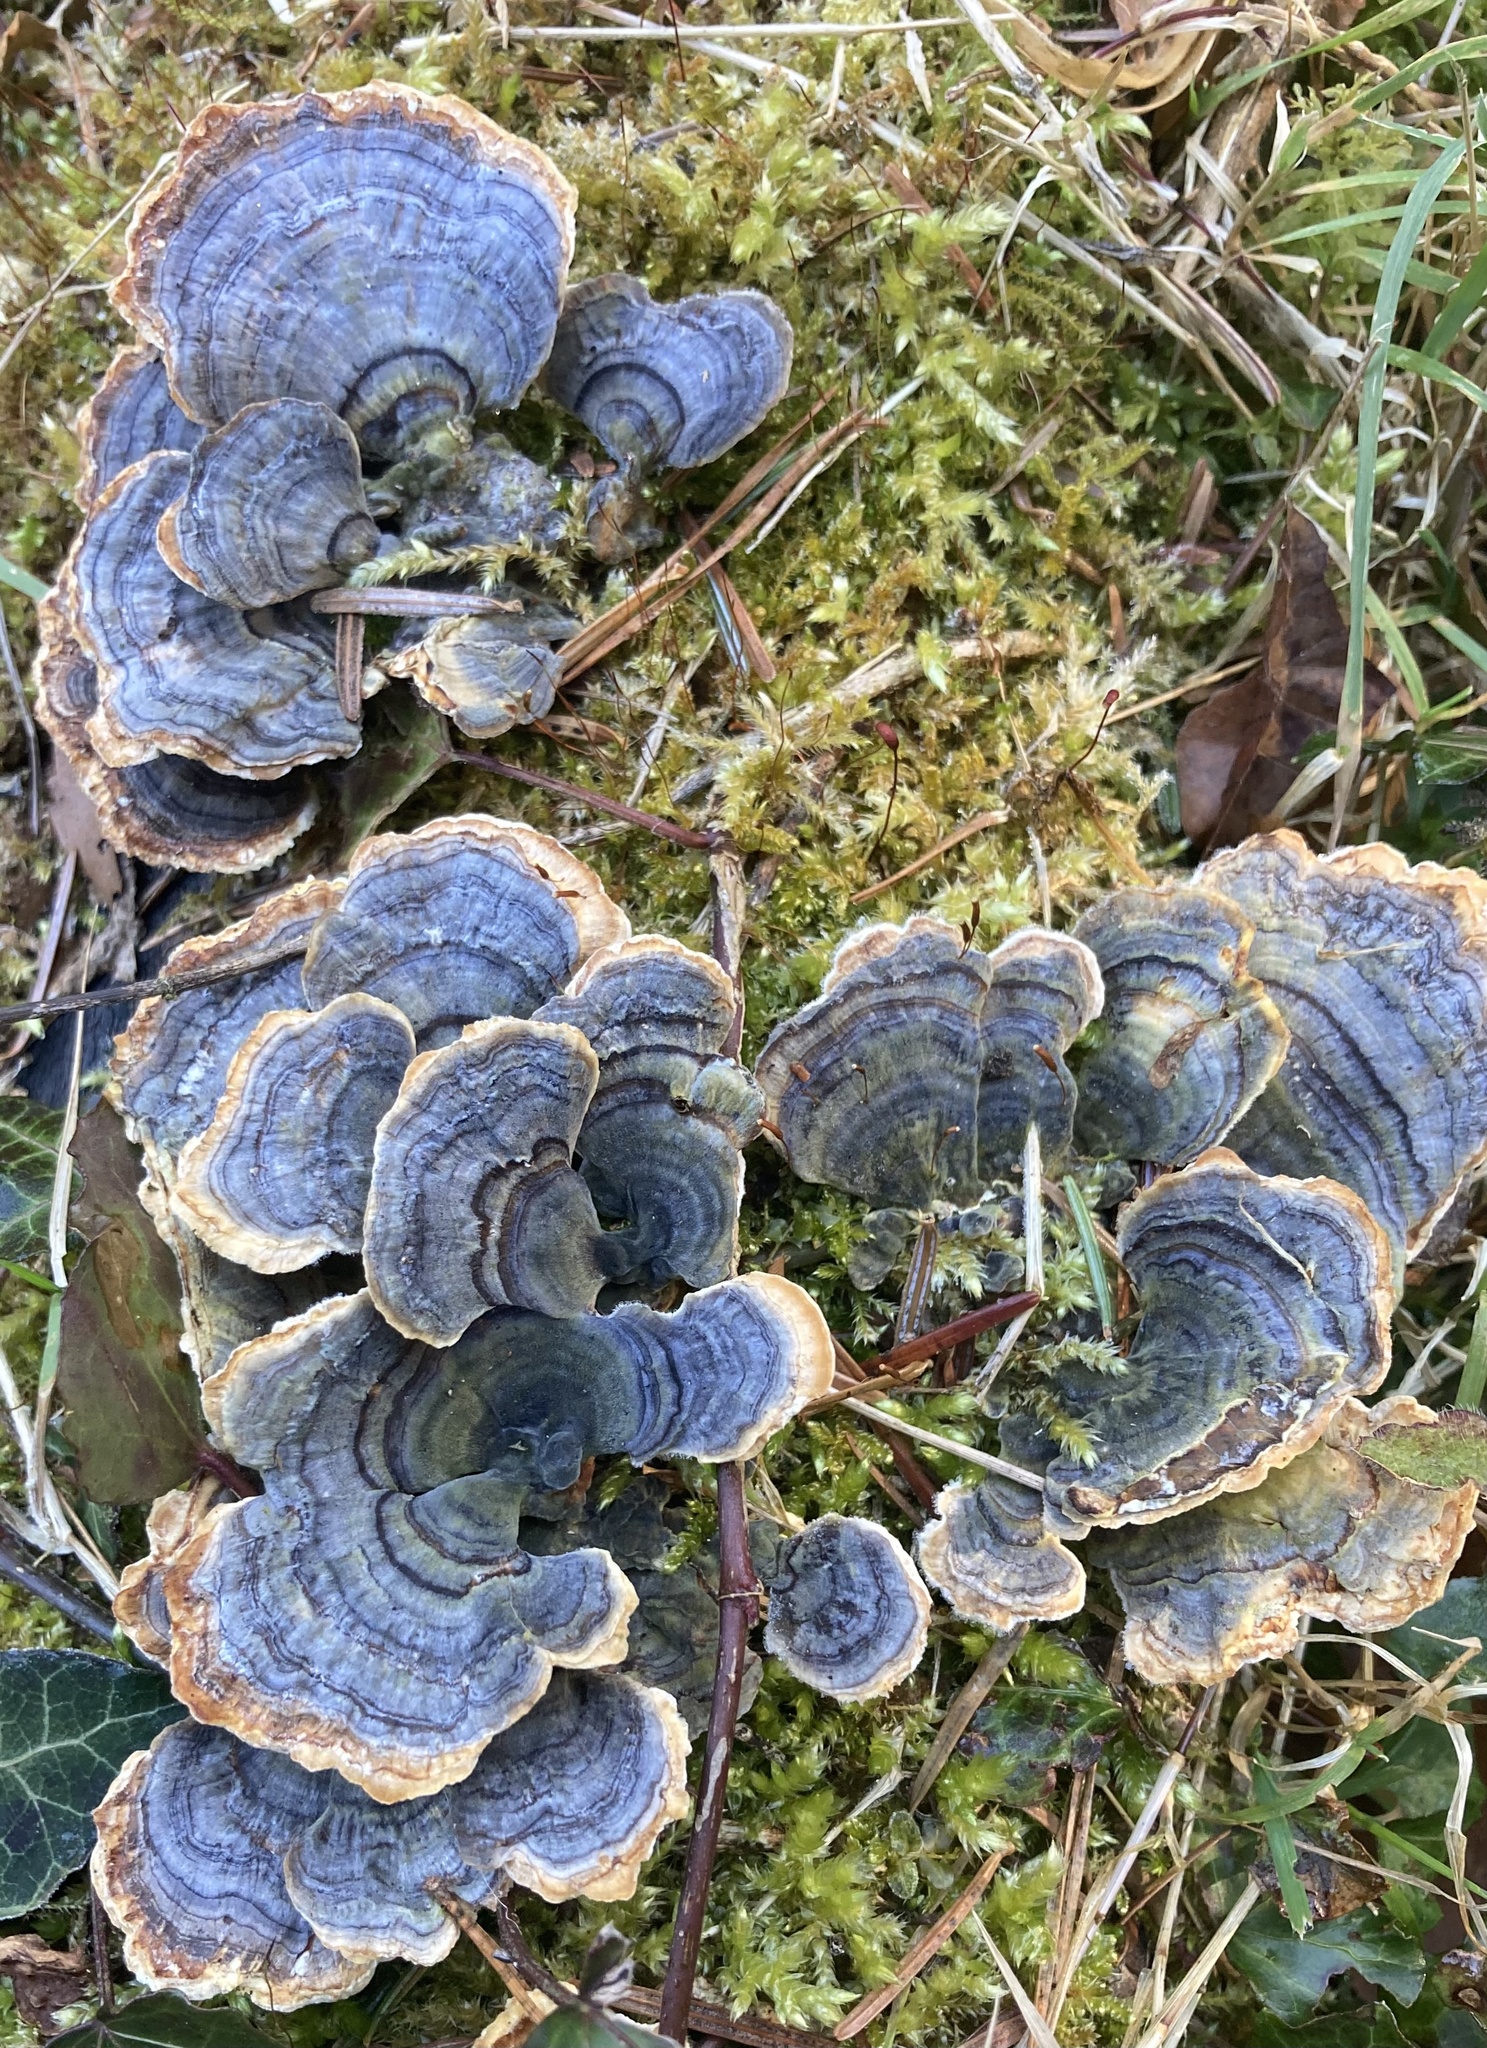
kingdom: Fungi
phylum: Basidiomycota
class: Agaricomycetes
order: Polyporales
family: Polyporaceae
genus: Trametes
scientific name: Trametes versicolor
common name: Turkeytail
